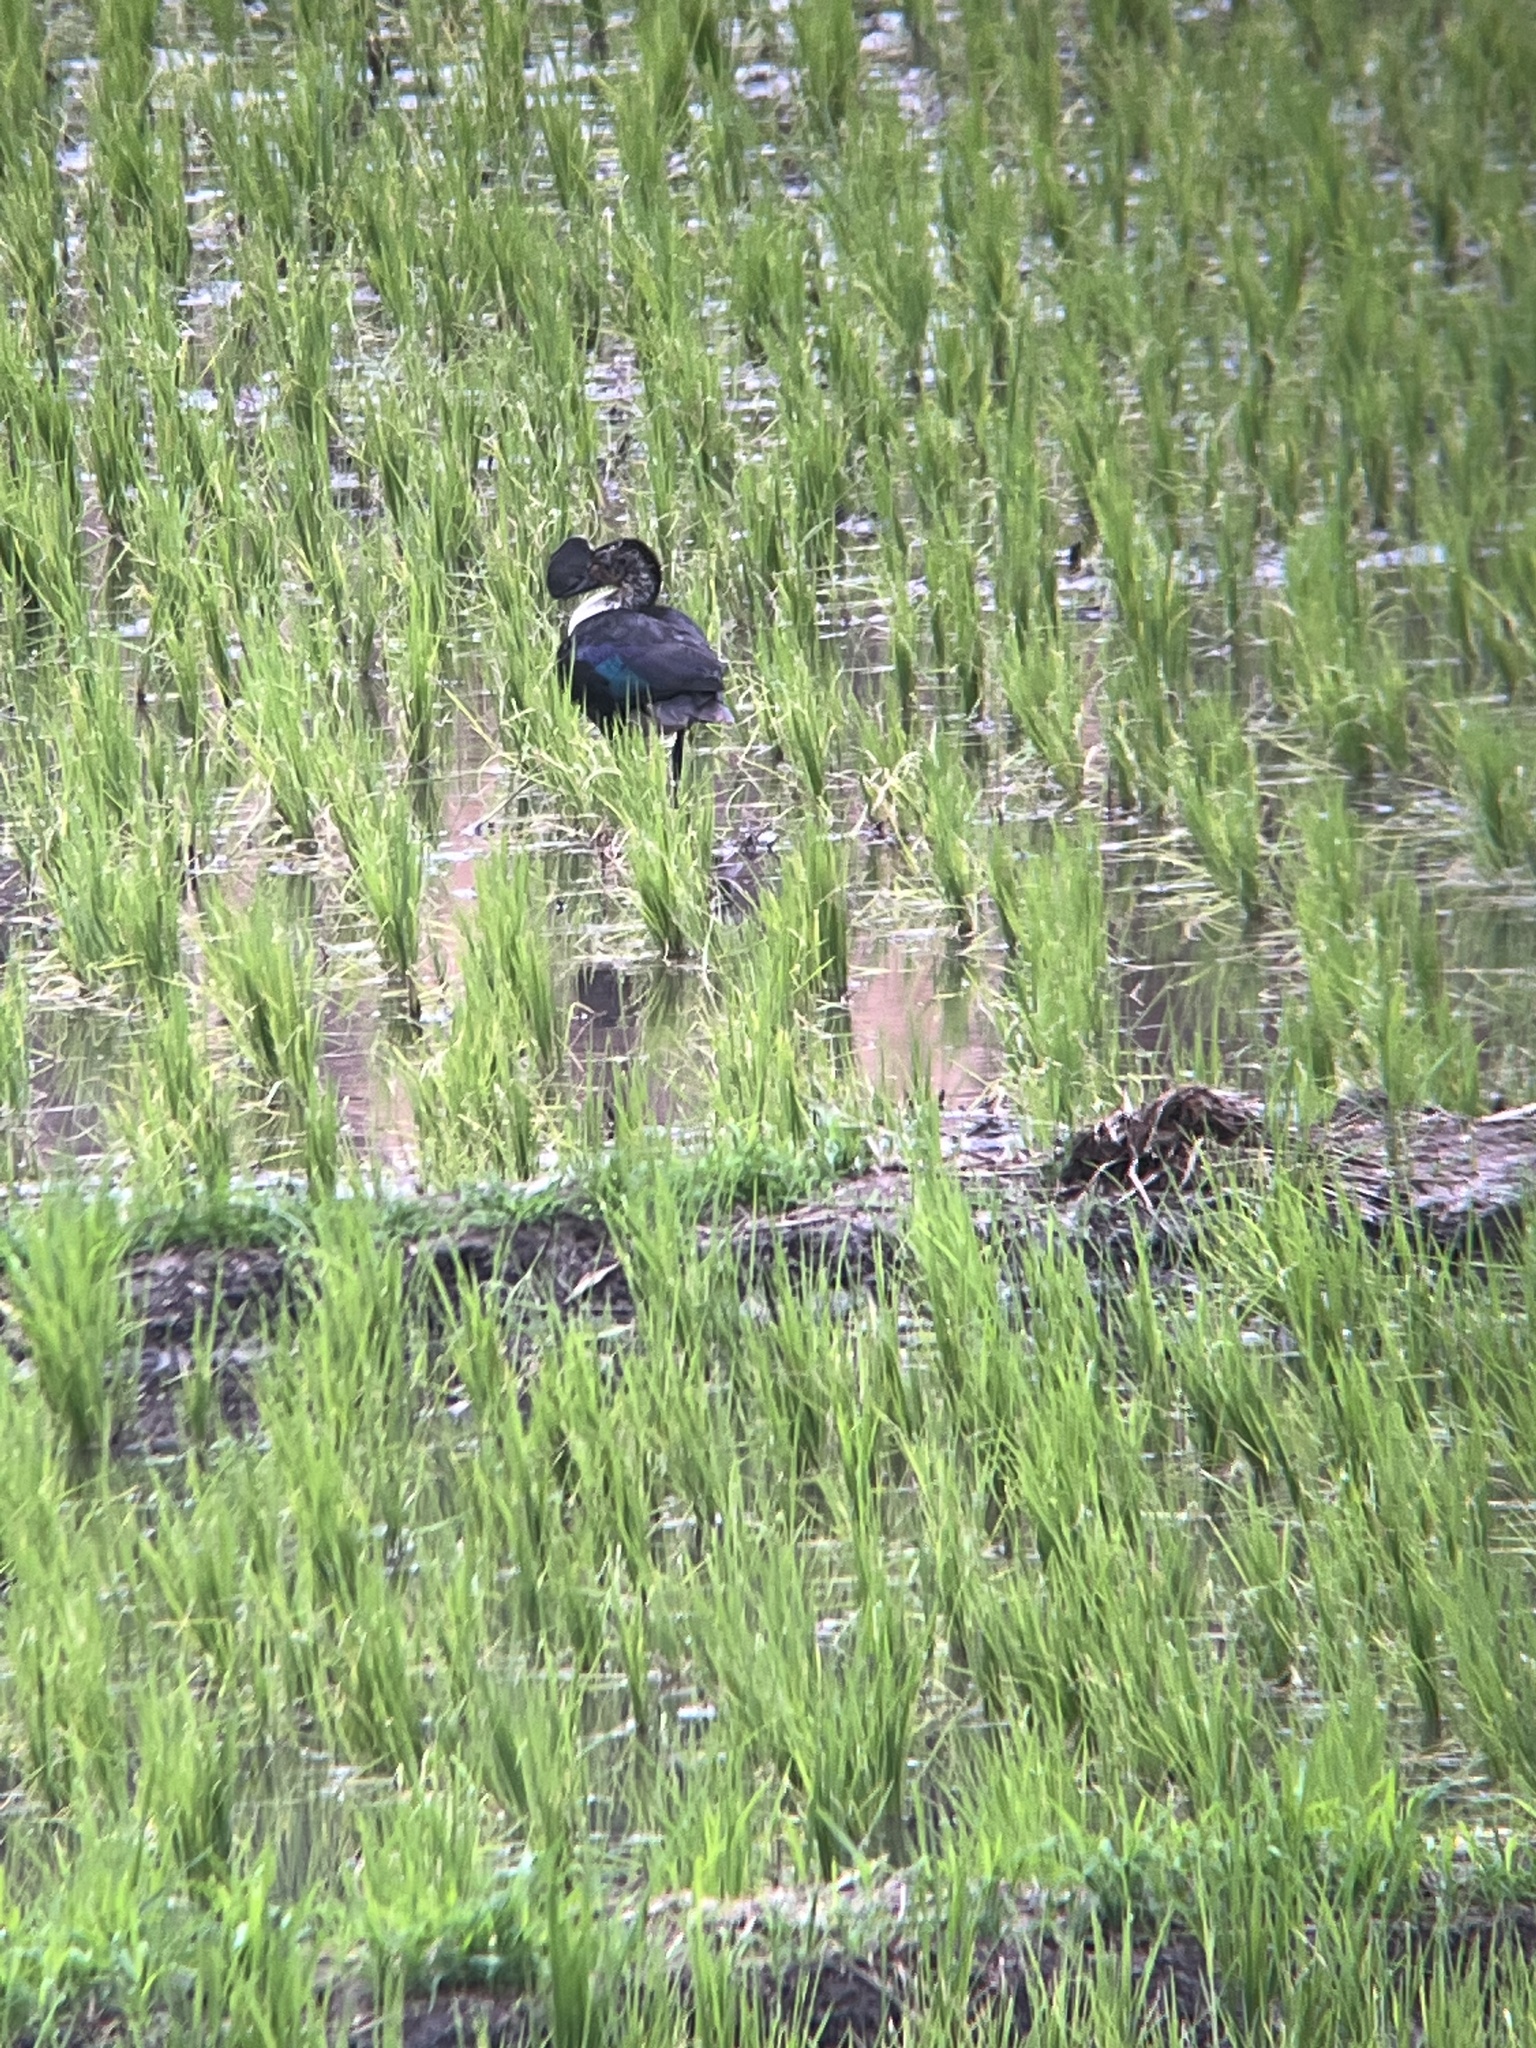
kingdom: Animalia
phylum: Chordata
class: Aves
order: Anseriformes
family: Anatidae
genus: Sarkidiornis
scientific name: Sarkidiornis sylvicola
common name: Comb duck
